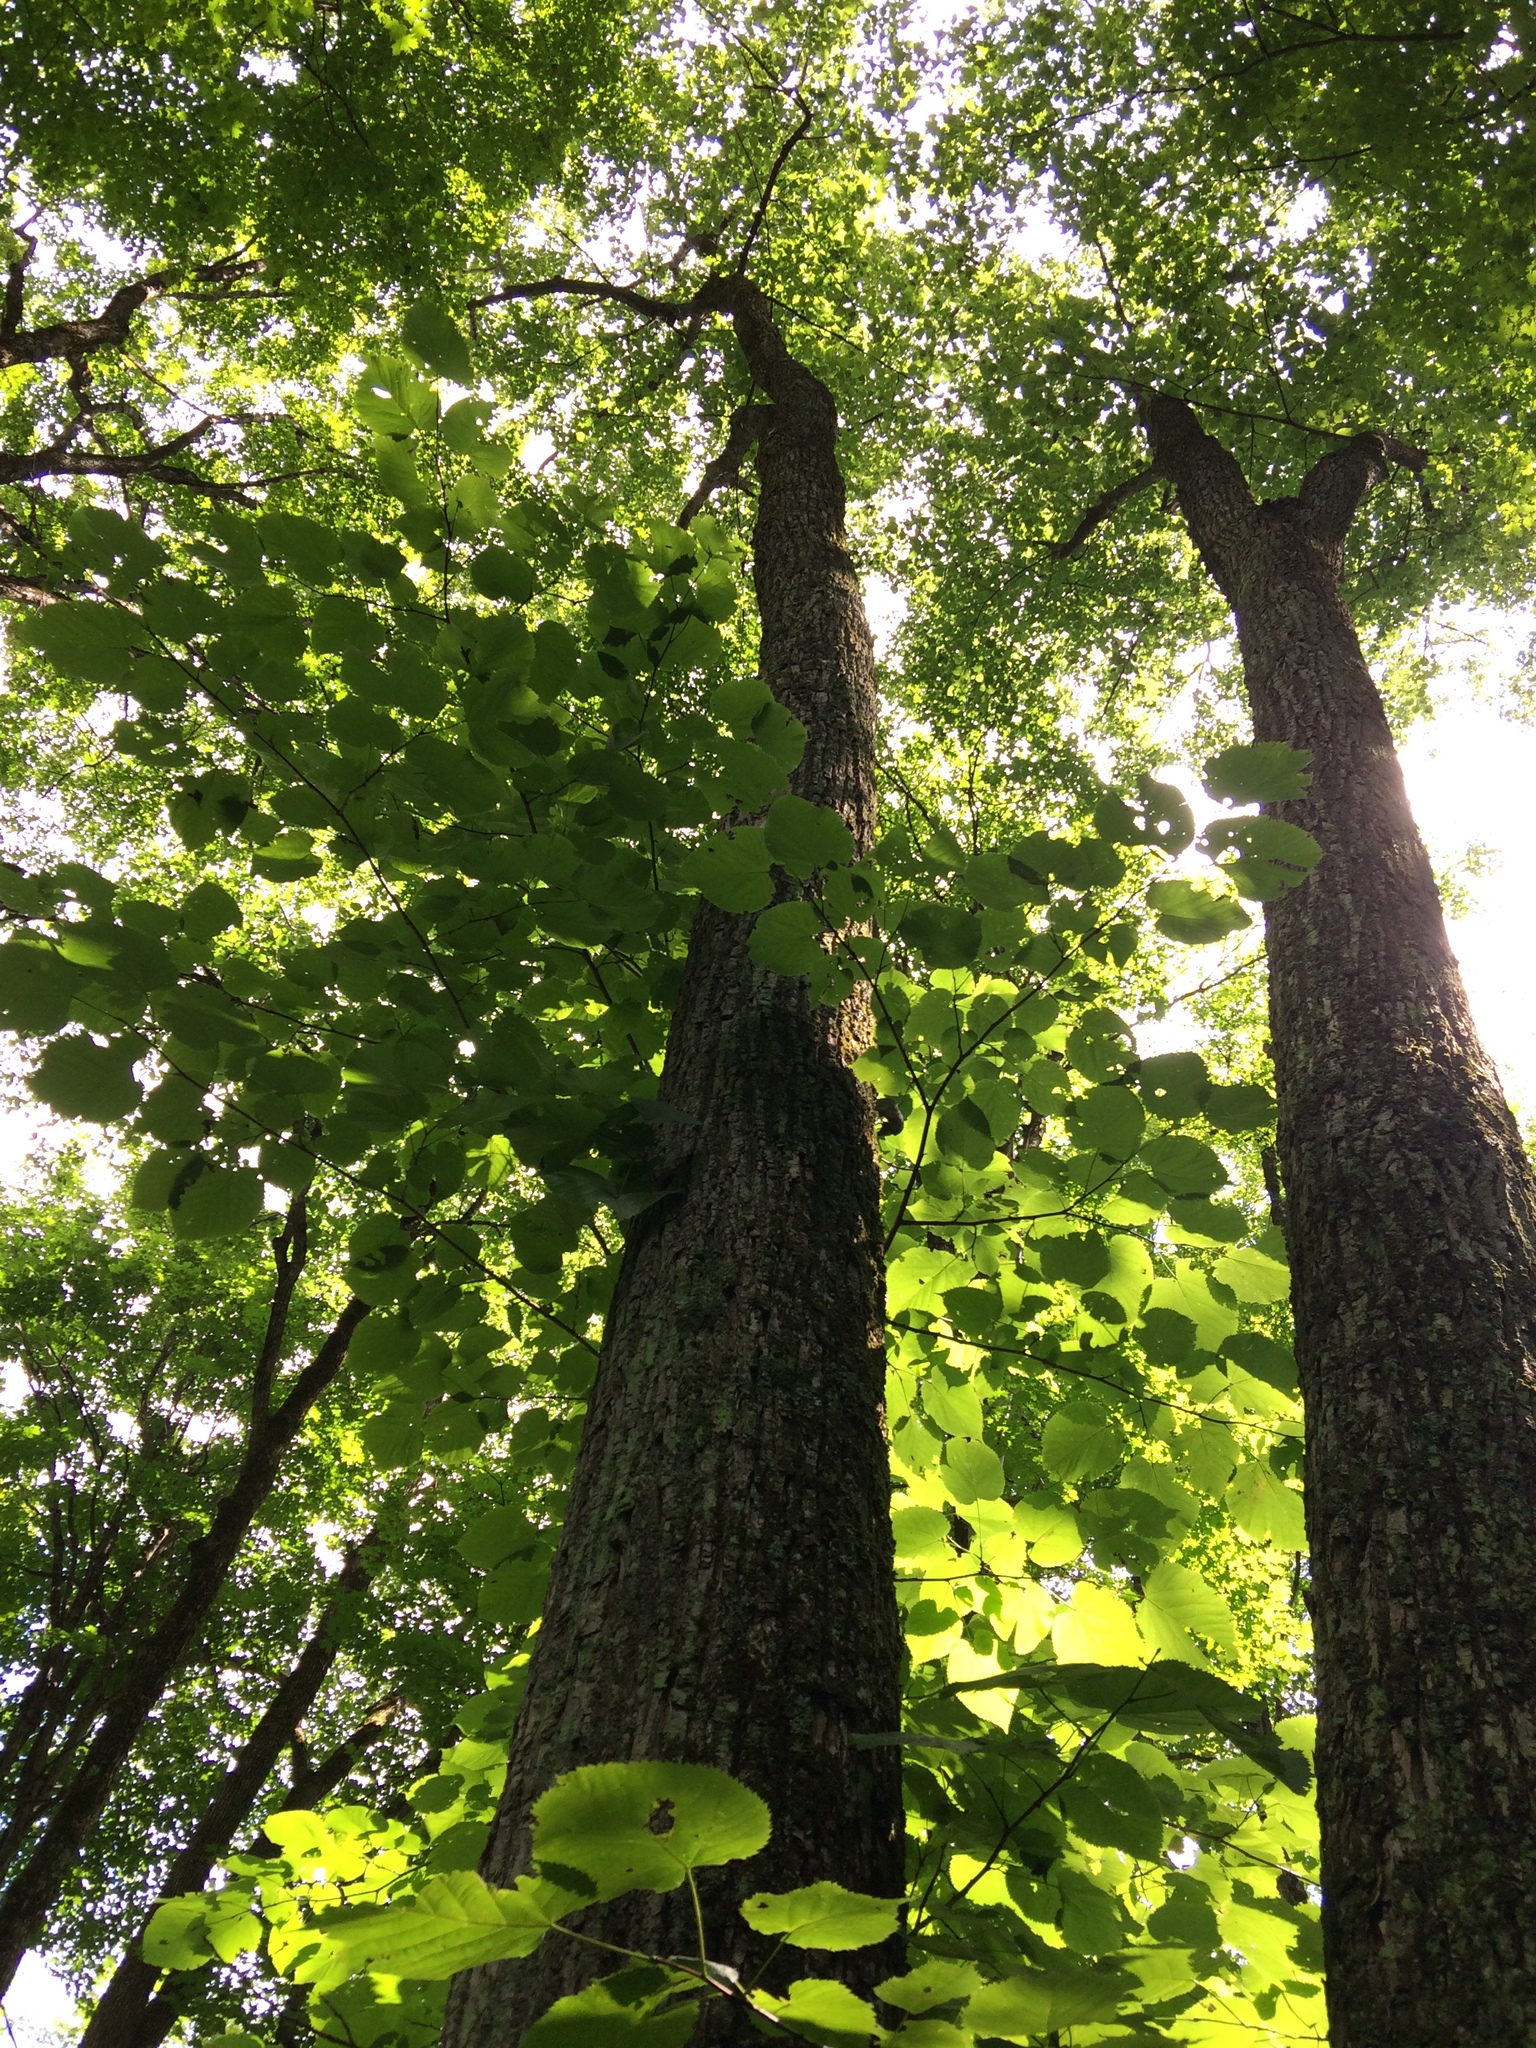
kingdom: Plantae
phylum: Tracheophyta
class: Magnoliopsida
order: Malvales
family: Malvaceae
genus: Tilia
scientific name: Tilia americana
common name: Basswood
